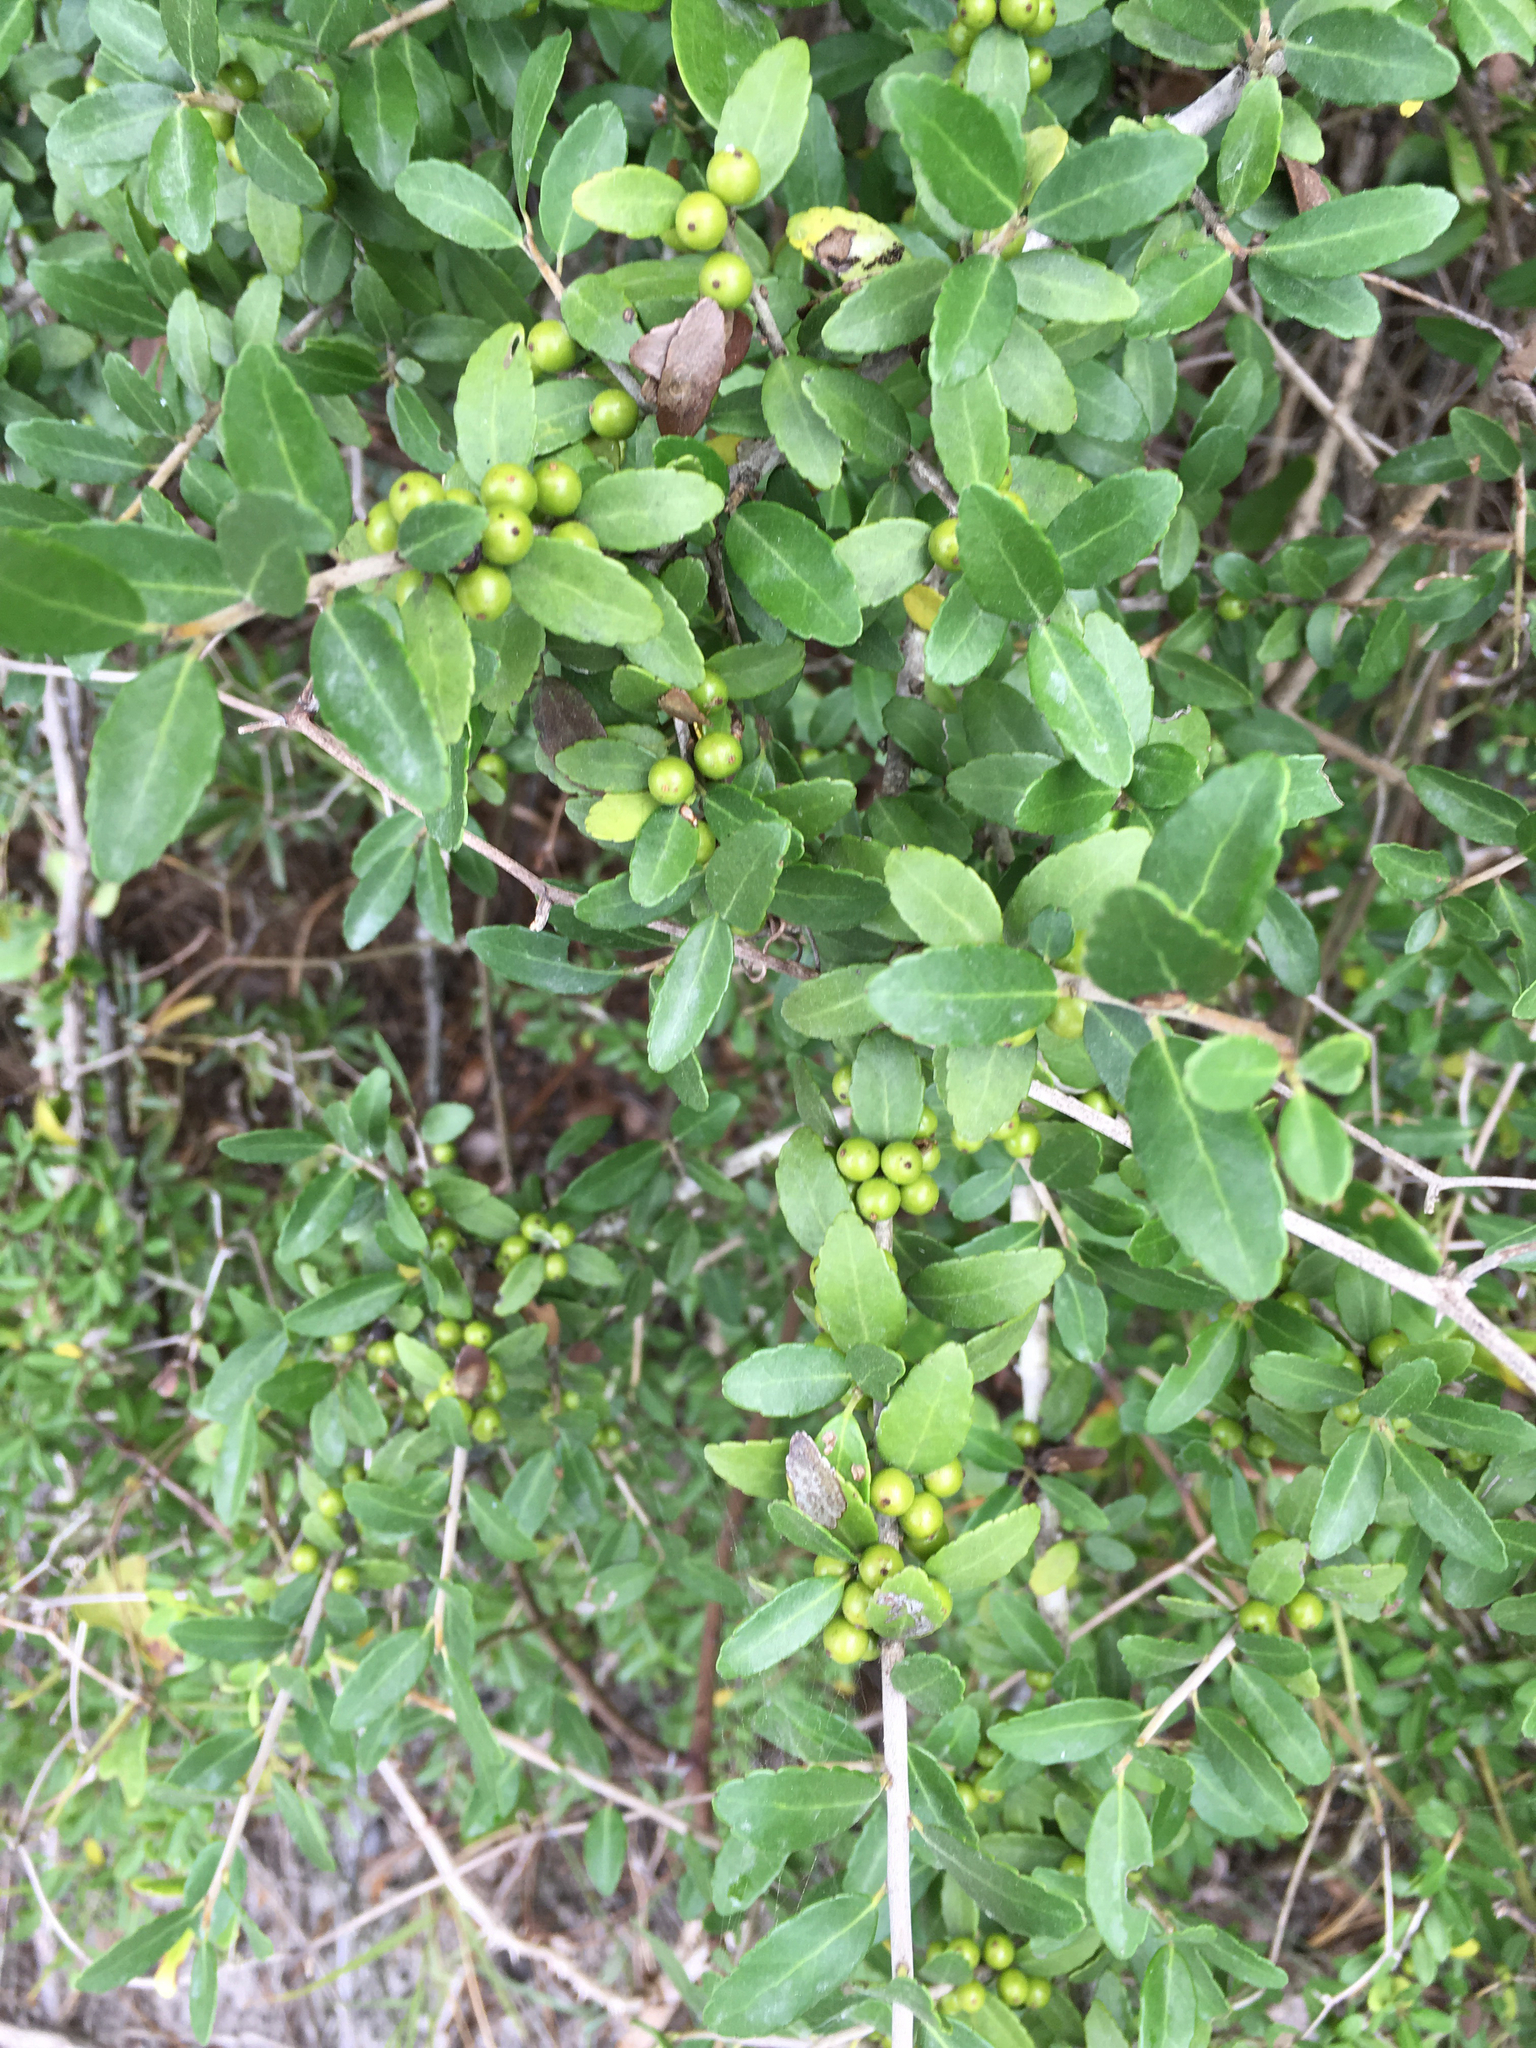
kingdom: Plantae
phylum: Tracheophyta
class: Magnoliopsida
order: Aquifoliales
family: Aquifoliaceae
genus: Ilex
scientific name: Ilex vomitoria
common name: Yaupon holly
